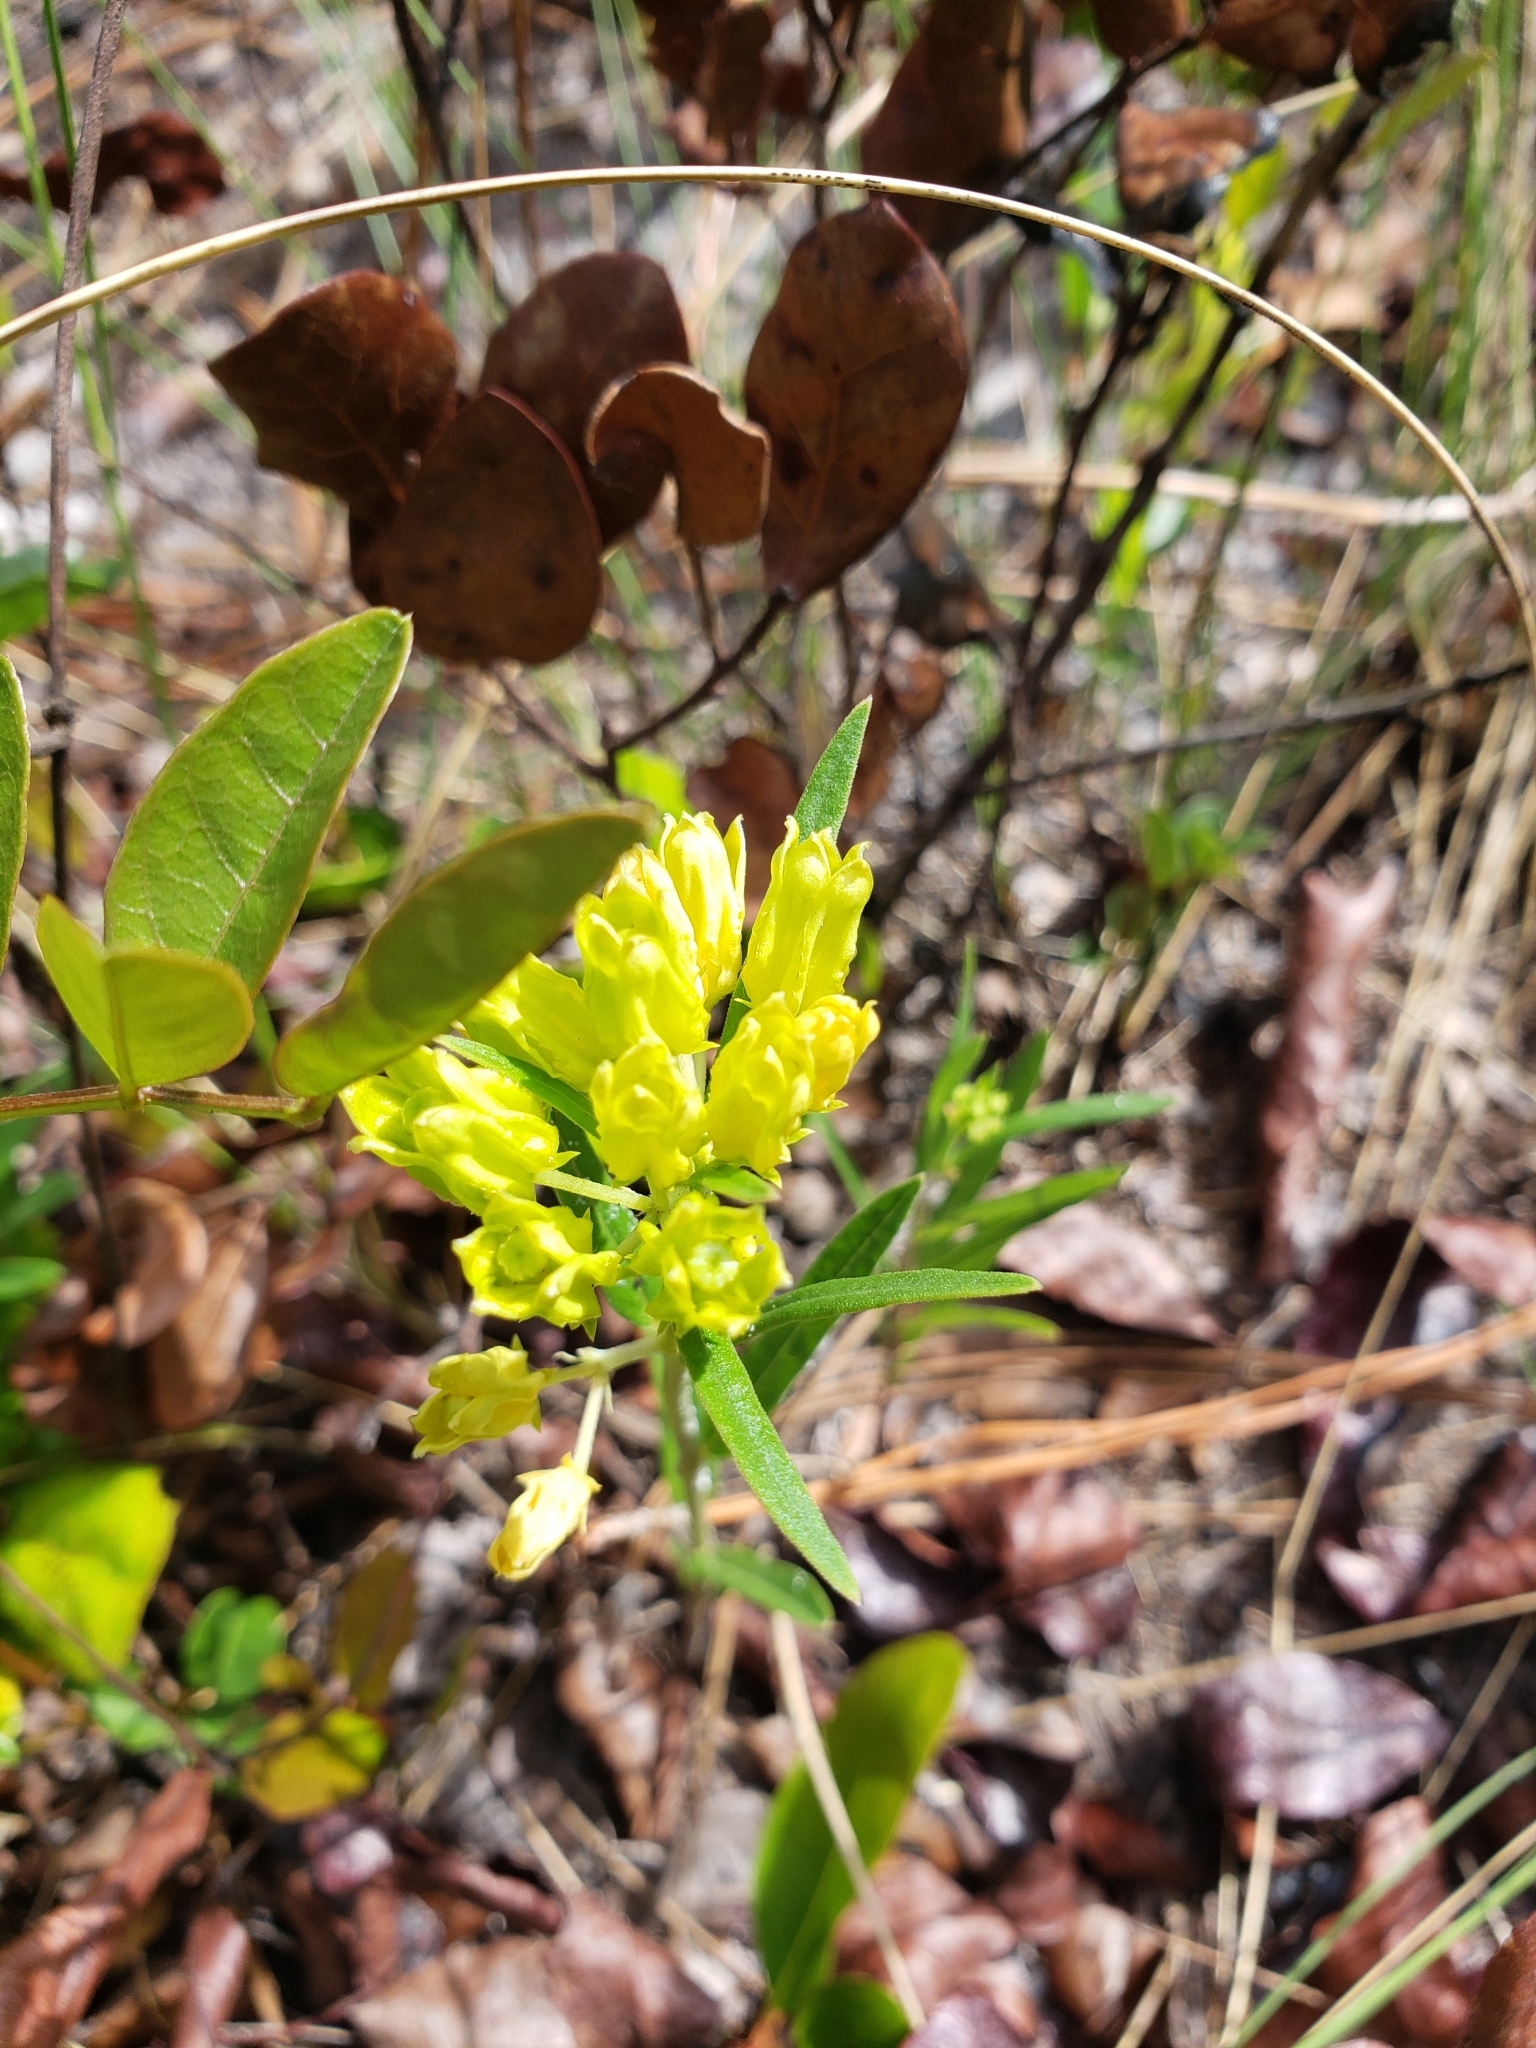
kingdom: Plantae
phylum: Tracheophyta
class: Magnoliopsida
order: Gentianales
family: Apocynaceae
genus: Asclepias
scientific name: Asclepias pedicellata
